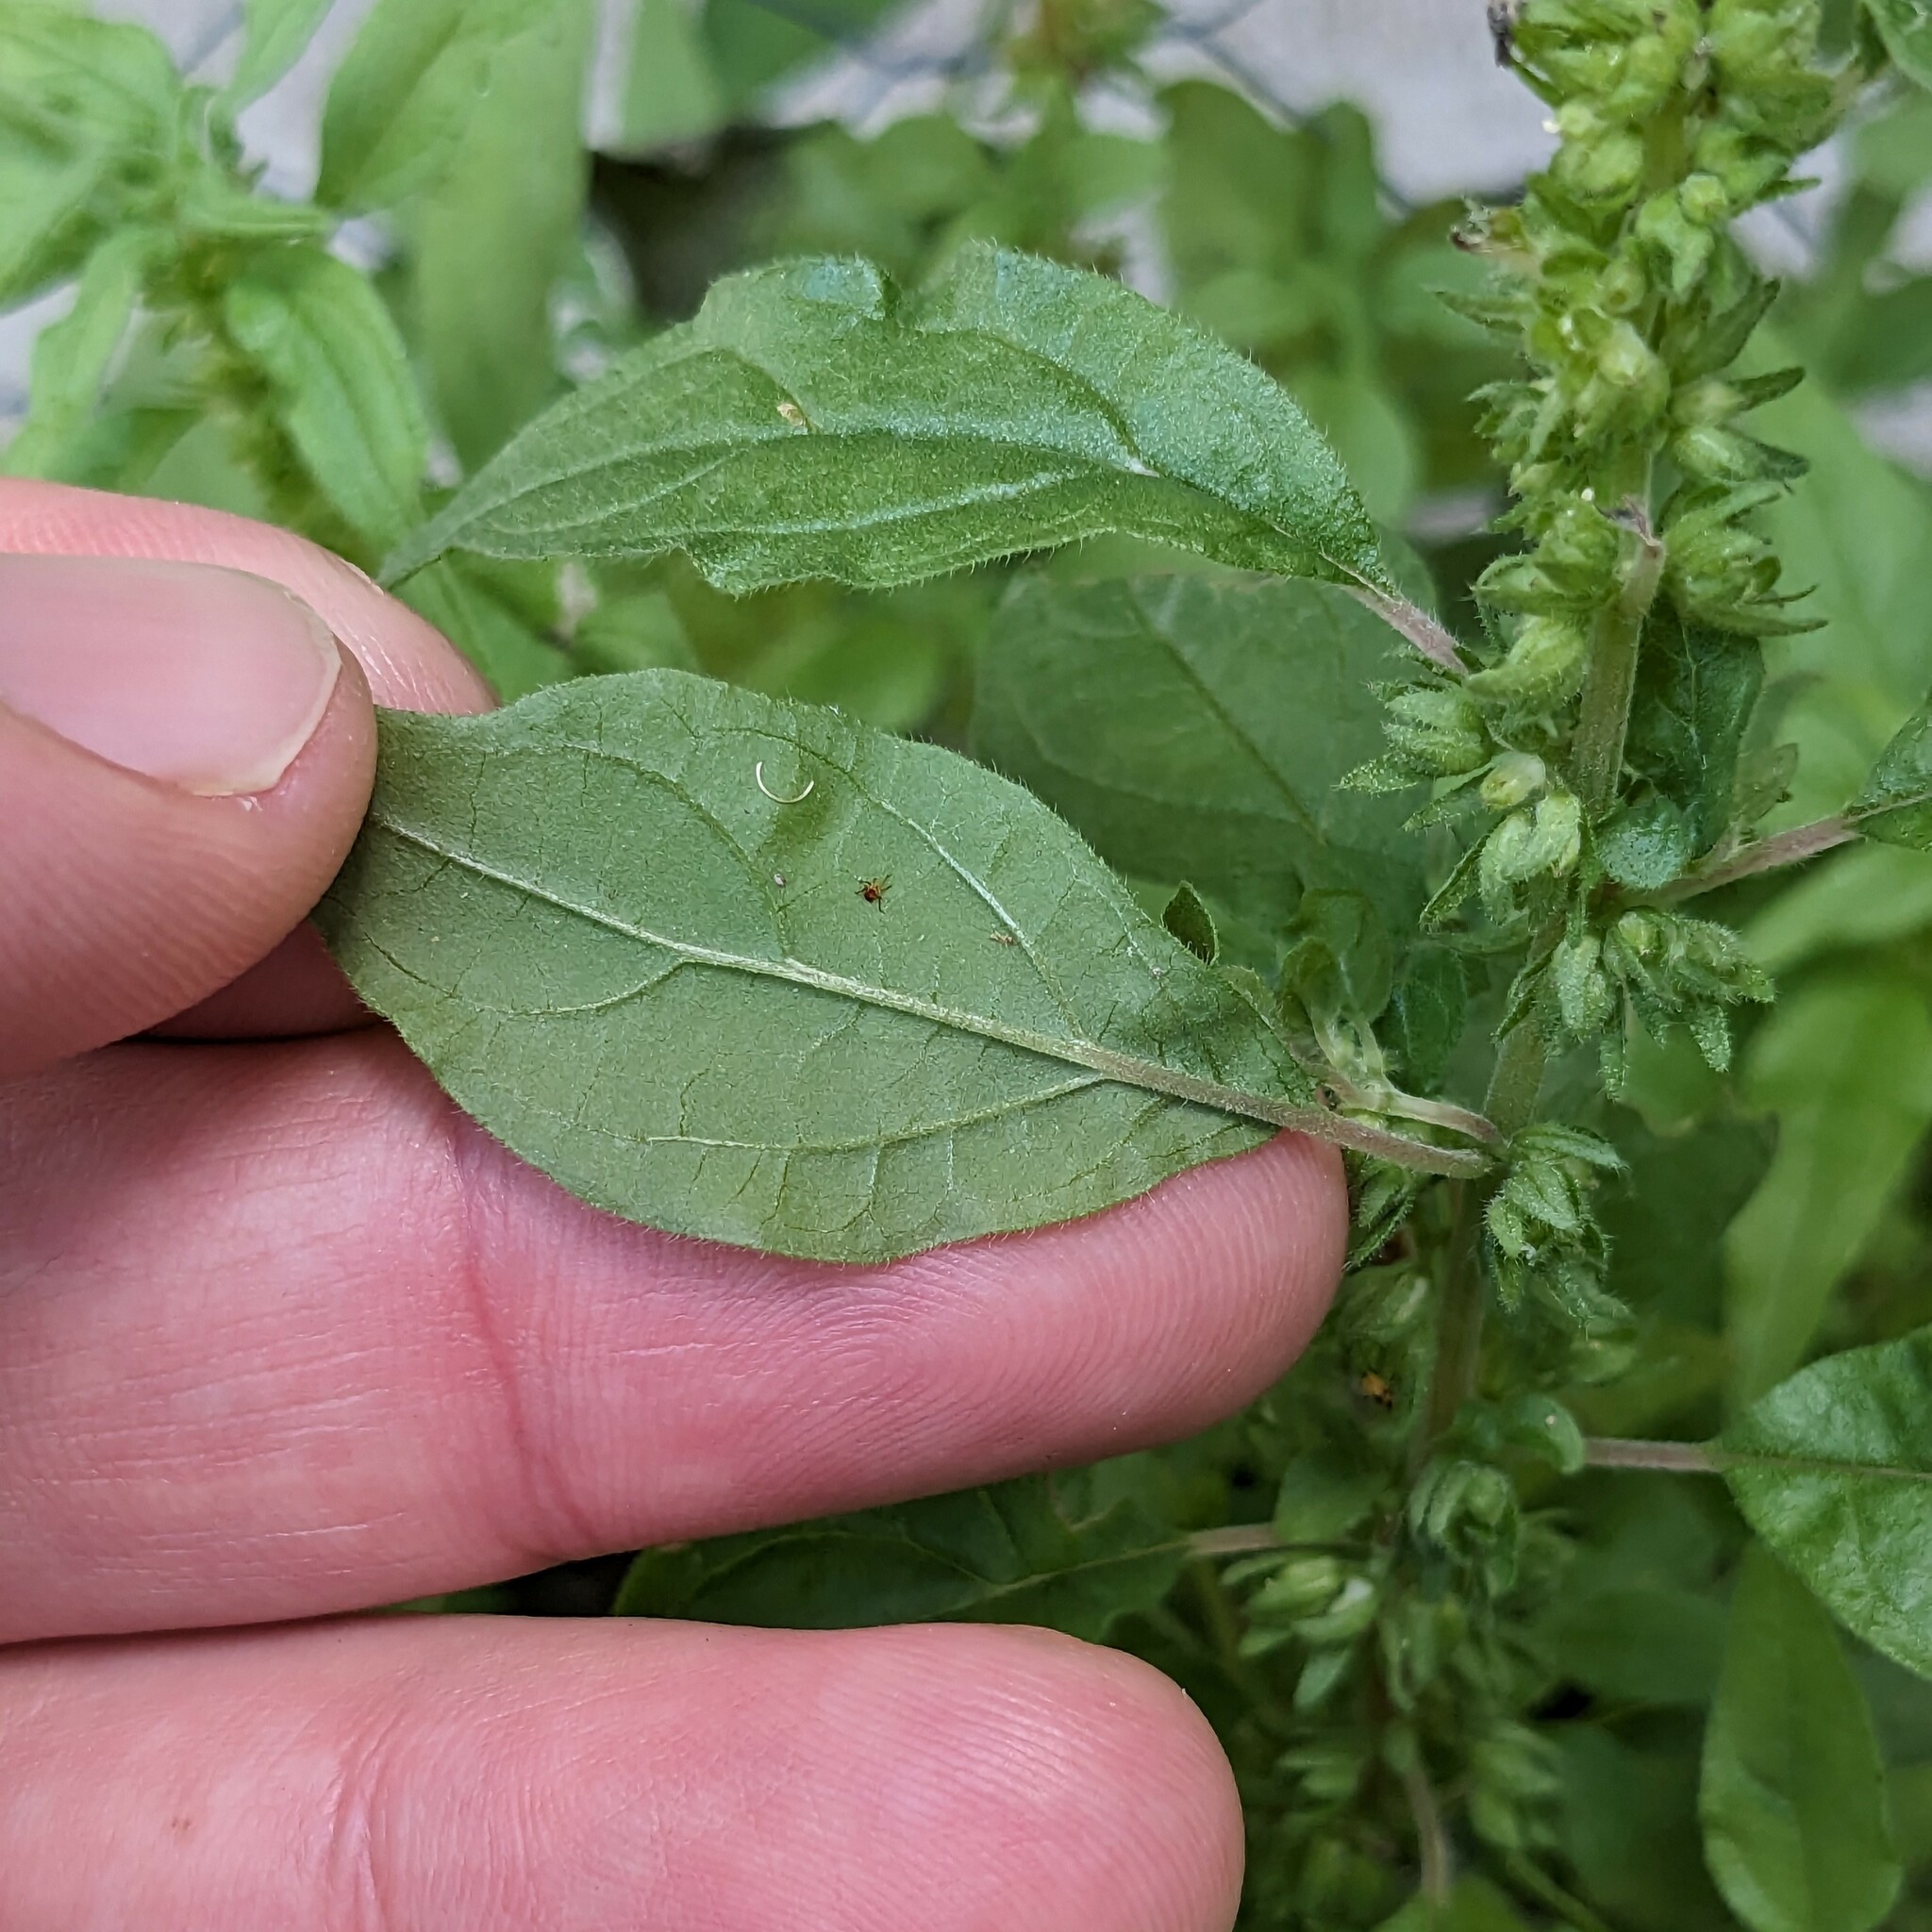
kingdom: Plantae
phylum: Tracheophyta
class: Magnoliopsida
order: Rosales
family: Urticaceae
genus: Parietaria
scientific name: Parietaria pensylvanica
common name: Pennsylvania pellitory
